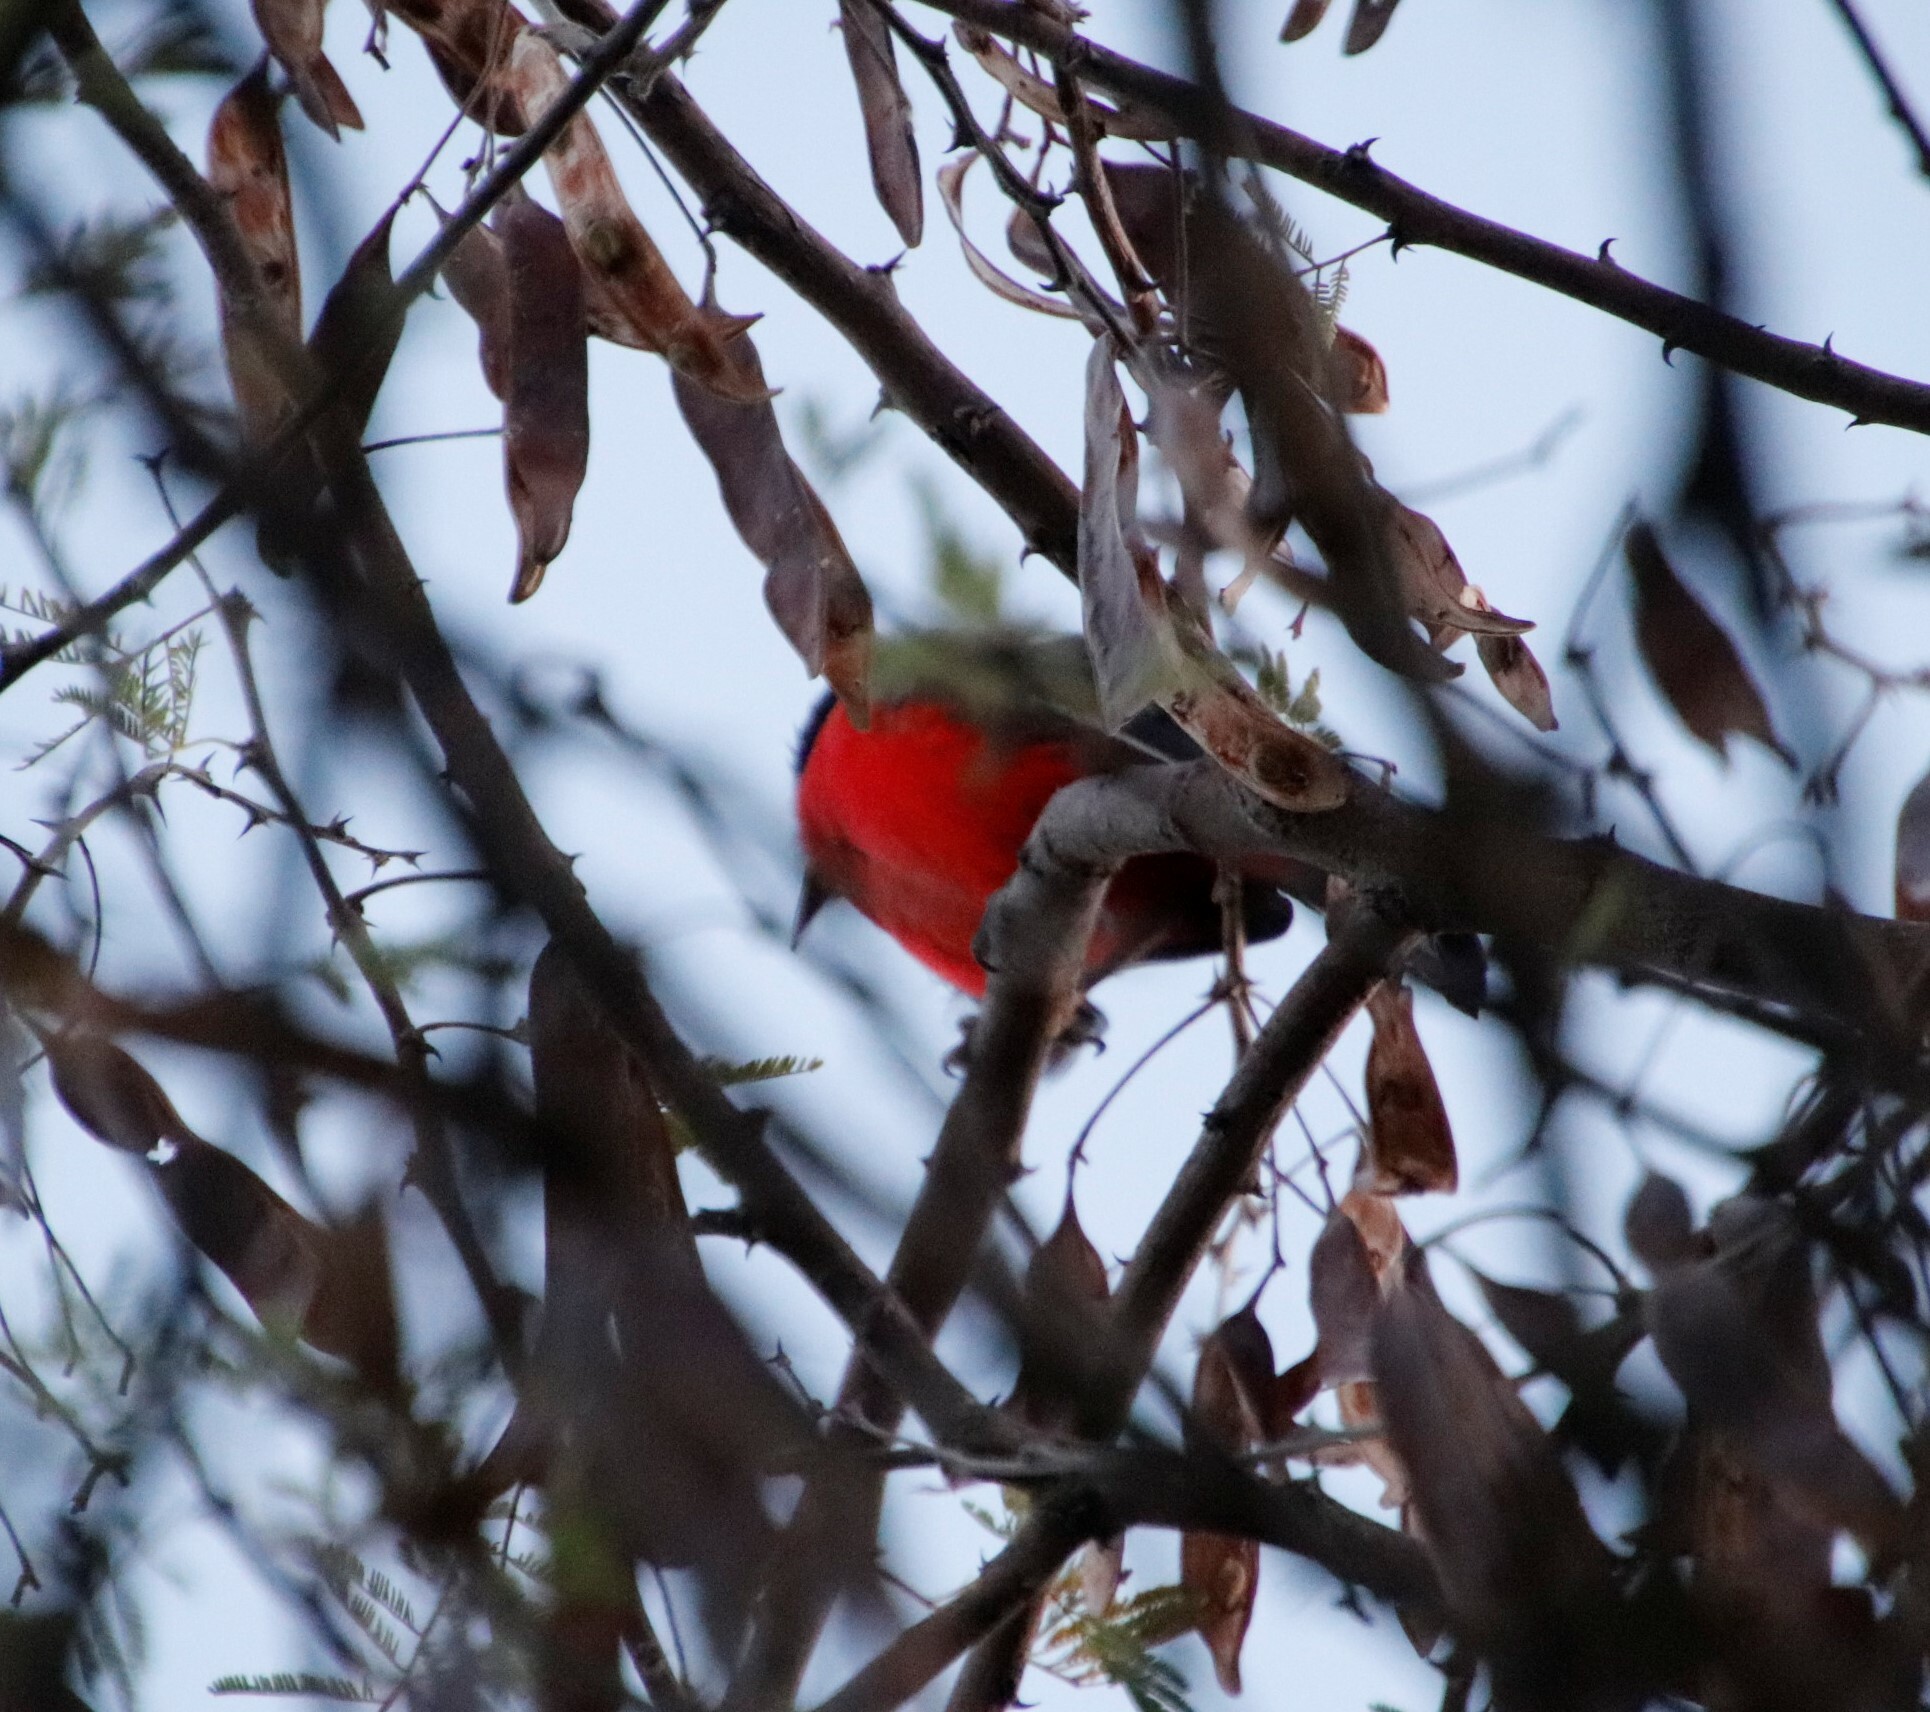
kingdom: Plantae
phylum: Tracheophyta
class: Magnoliopsida
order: Fabales
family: Fabaceae
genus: Vachellia
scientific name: Vachellia reficiens
